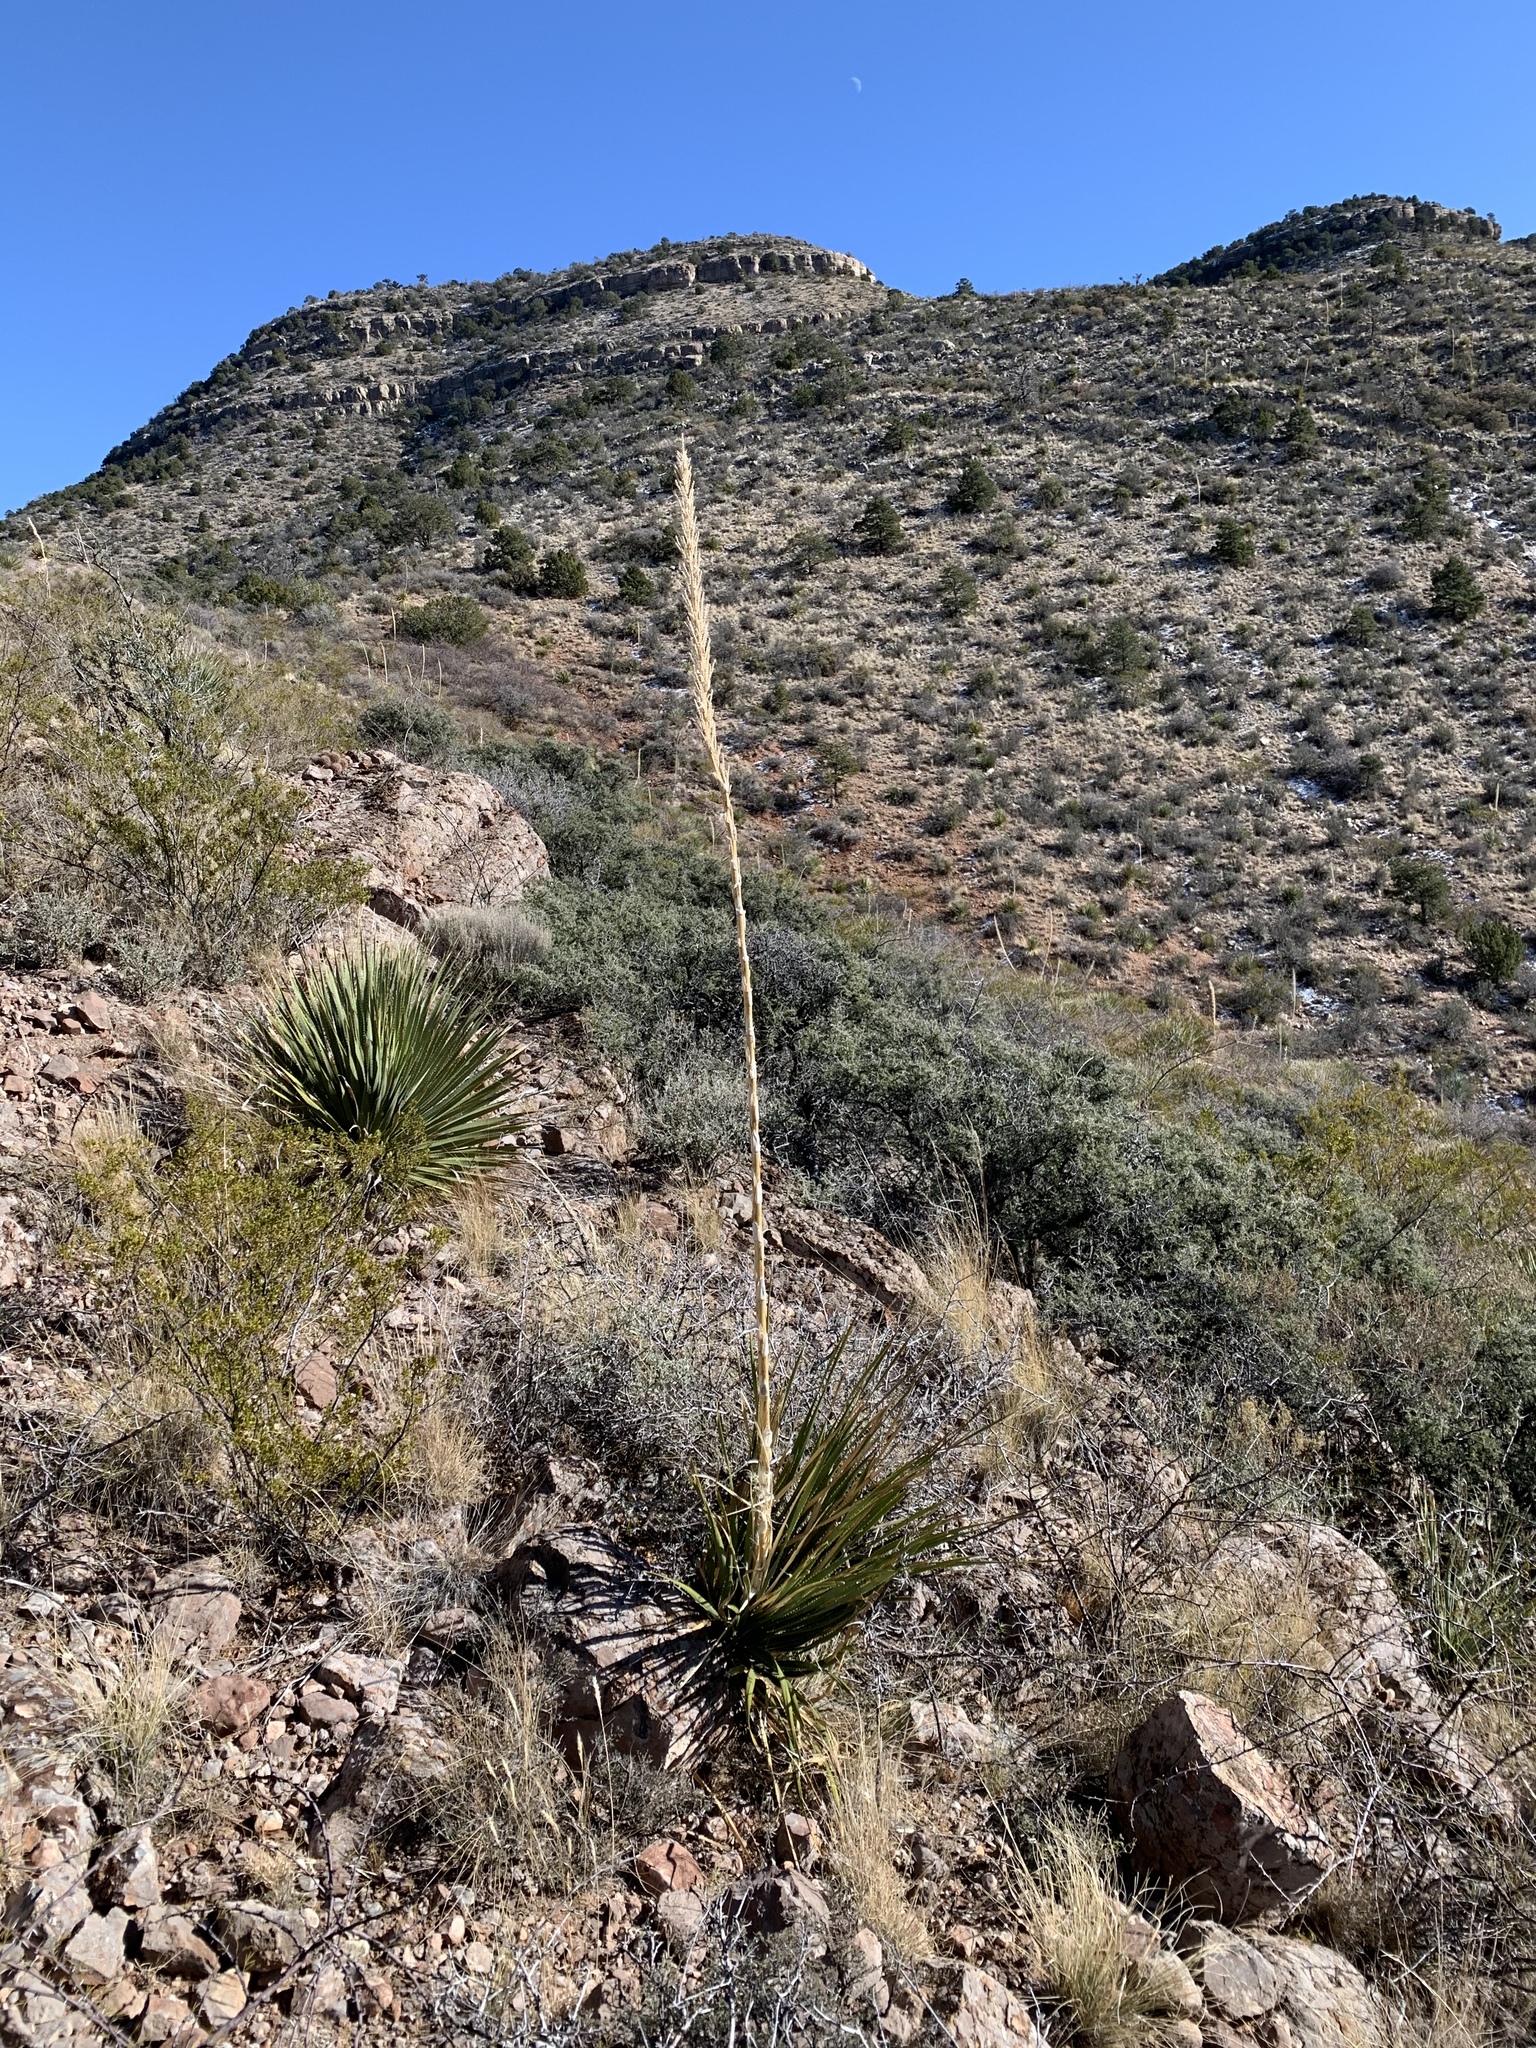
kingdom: Plantae
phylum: Tracheophyta
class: Liliopsida
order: Asparagales
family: Asparagaceae
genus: Dasylirion
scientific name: Dasylirion wheeleri
